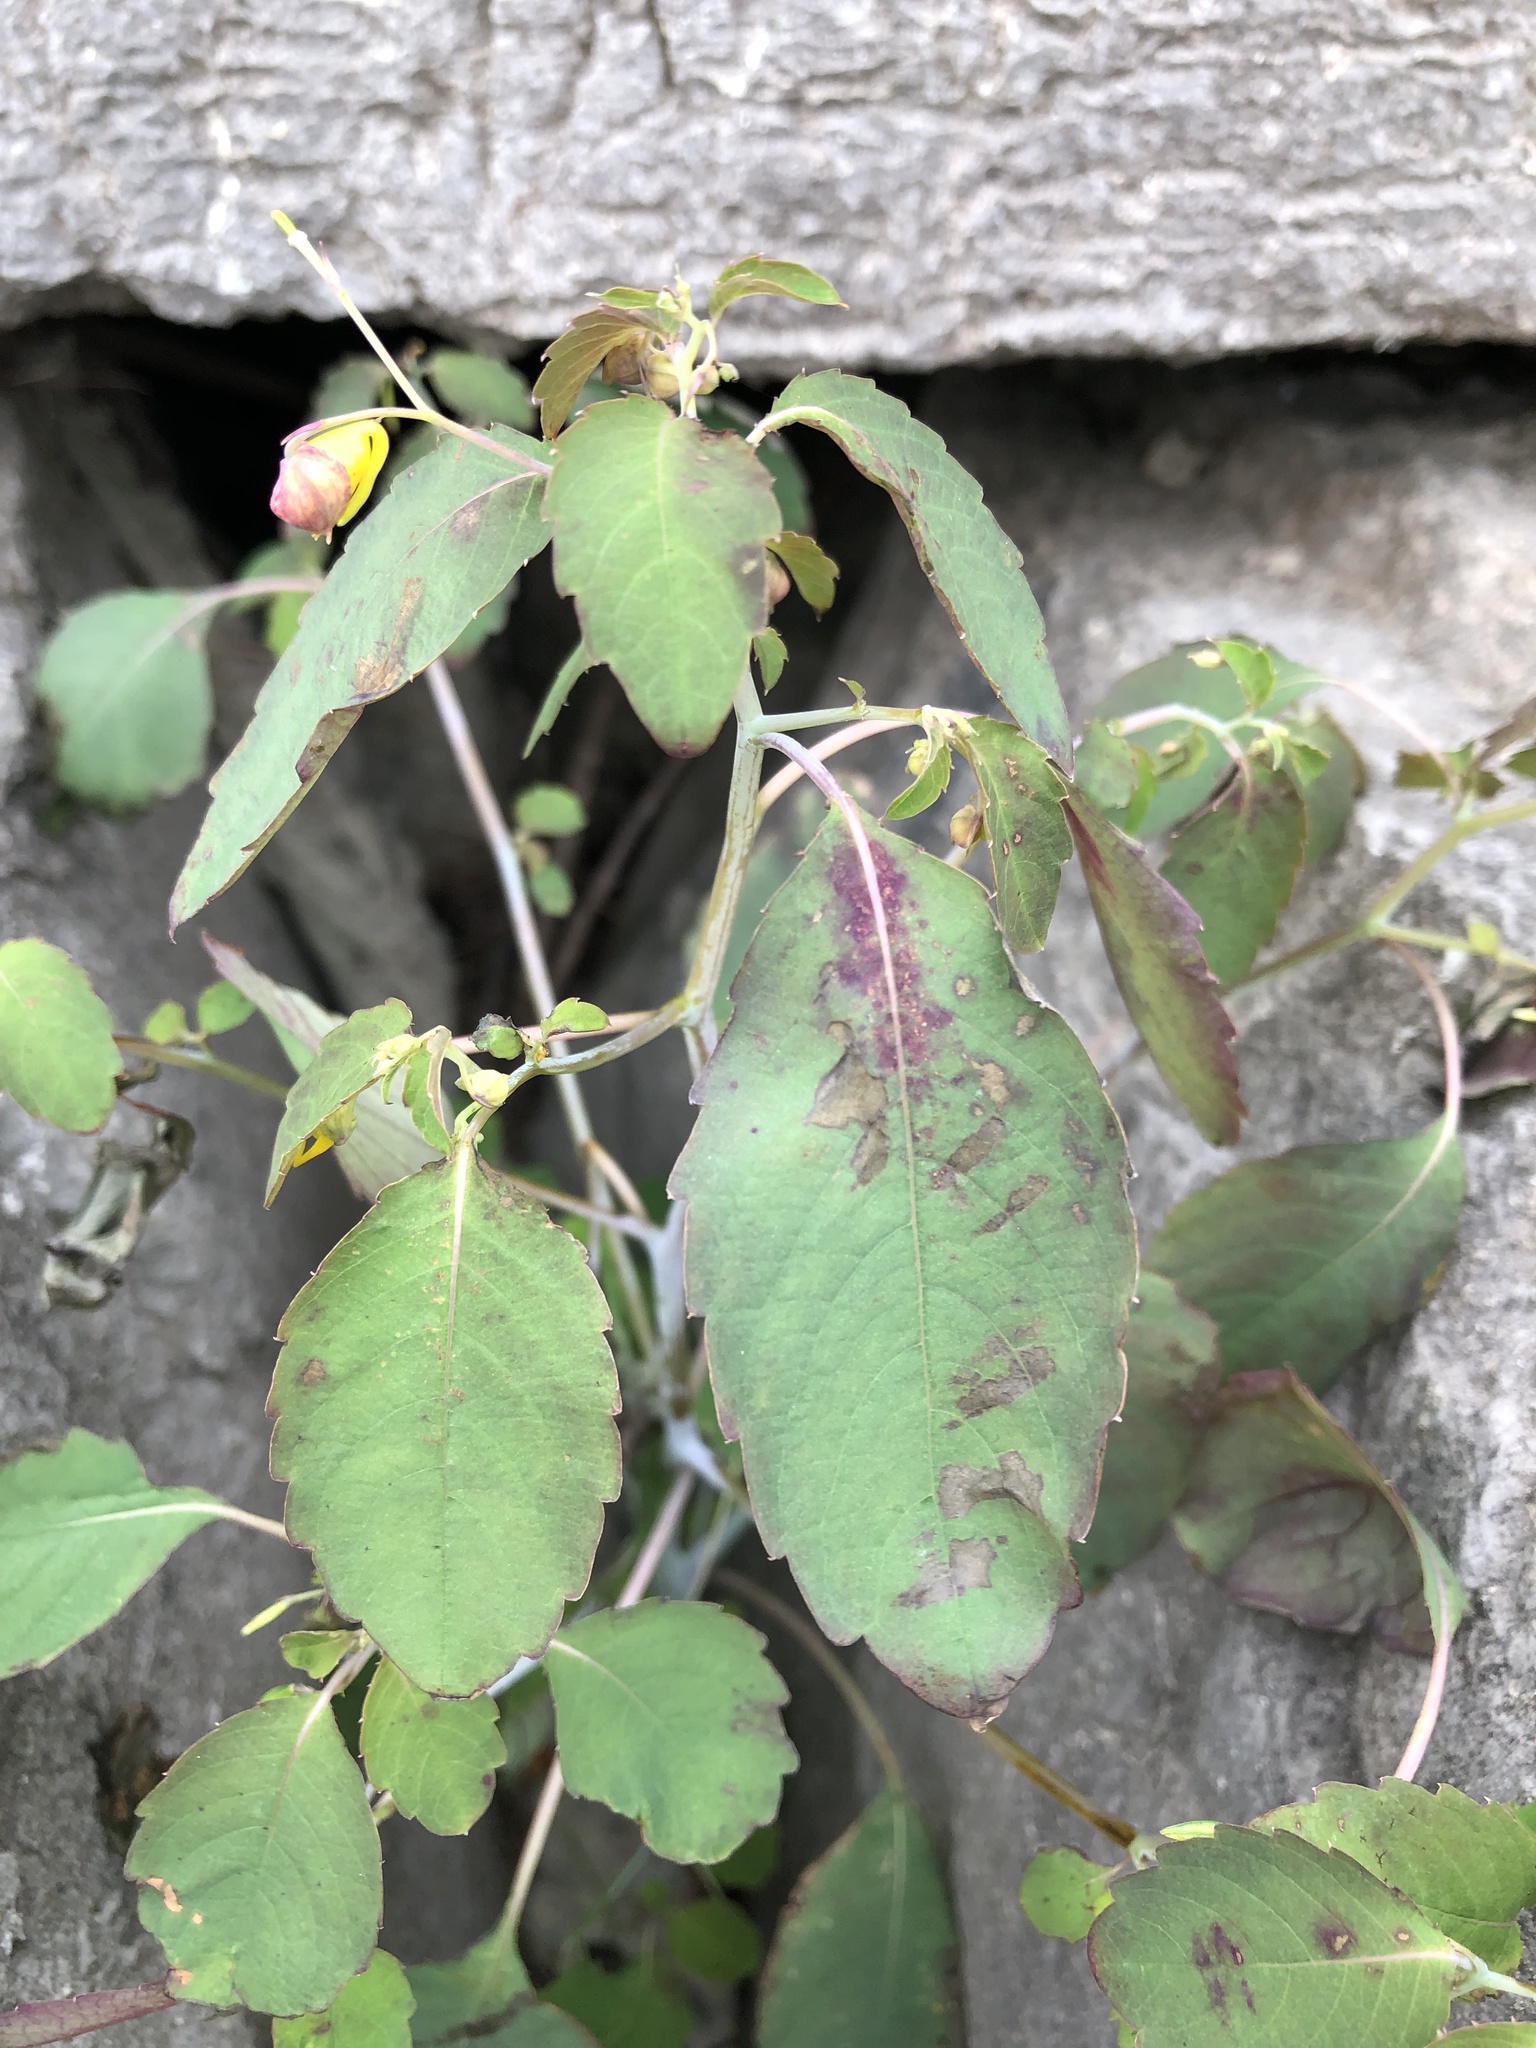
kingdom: Plantae
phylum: Tracheophyta
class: Magnoliopsida
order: Ericales
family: Balsaminaceae
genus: Impatiens
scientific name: Impatiens capensis
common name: Orange balsam
